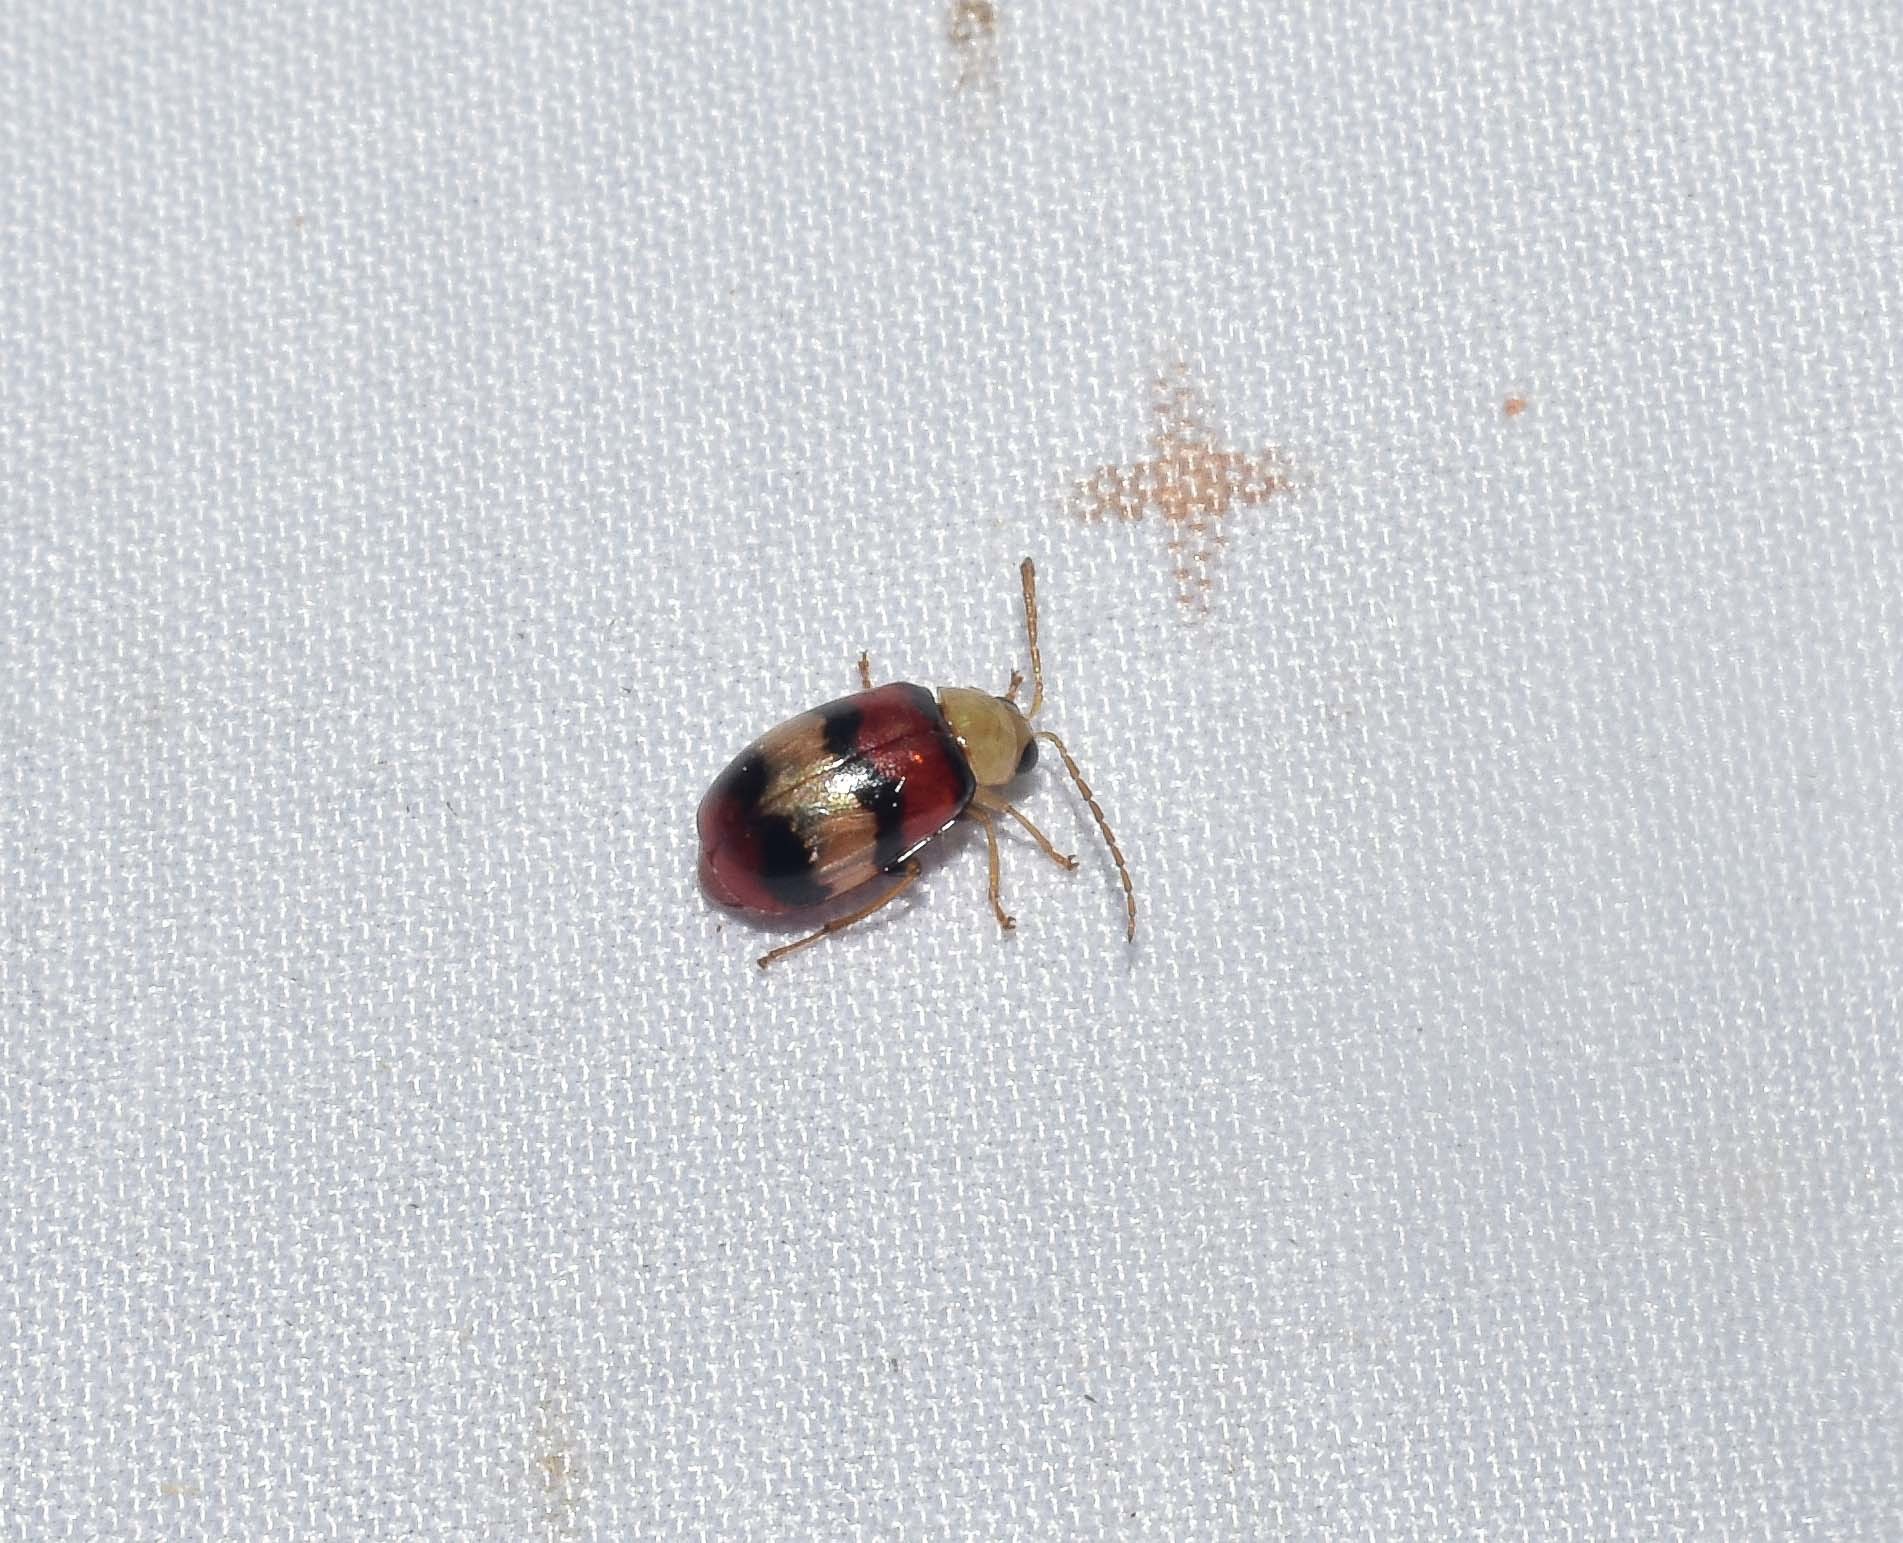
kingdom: Animalia
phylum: Arthropoda
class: Insecta
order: Coleoptera
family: Chrysomelidae
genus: Monolepta
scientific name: Monolepta
